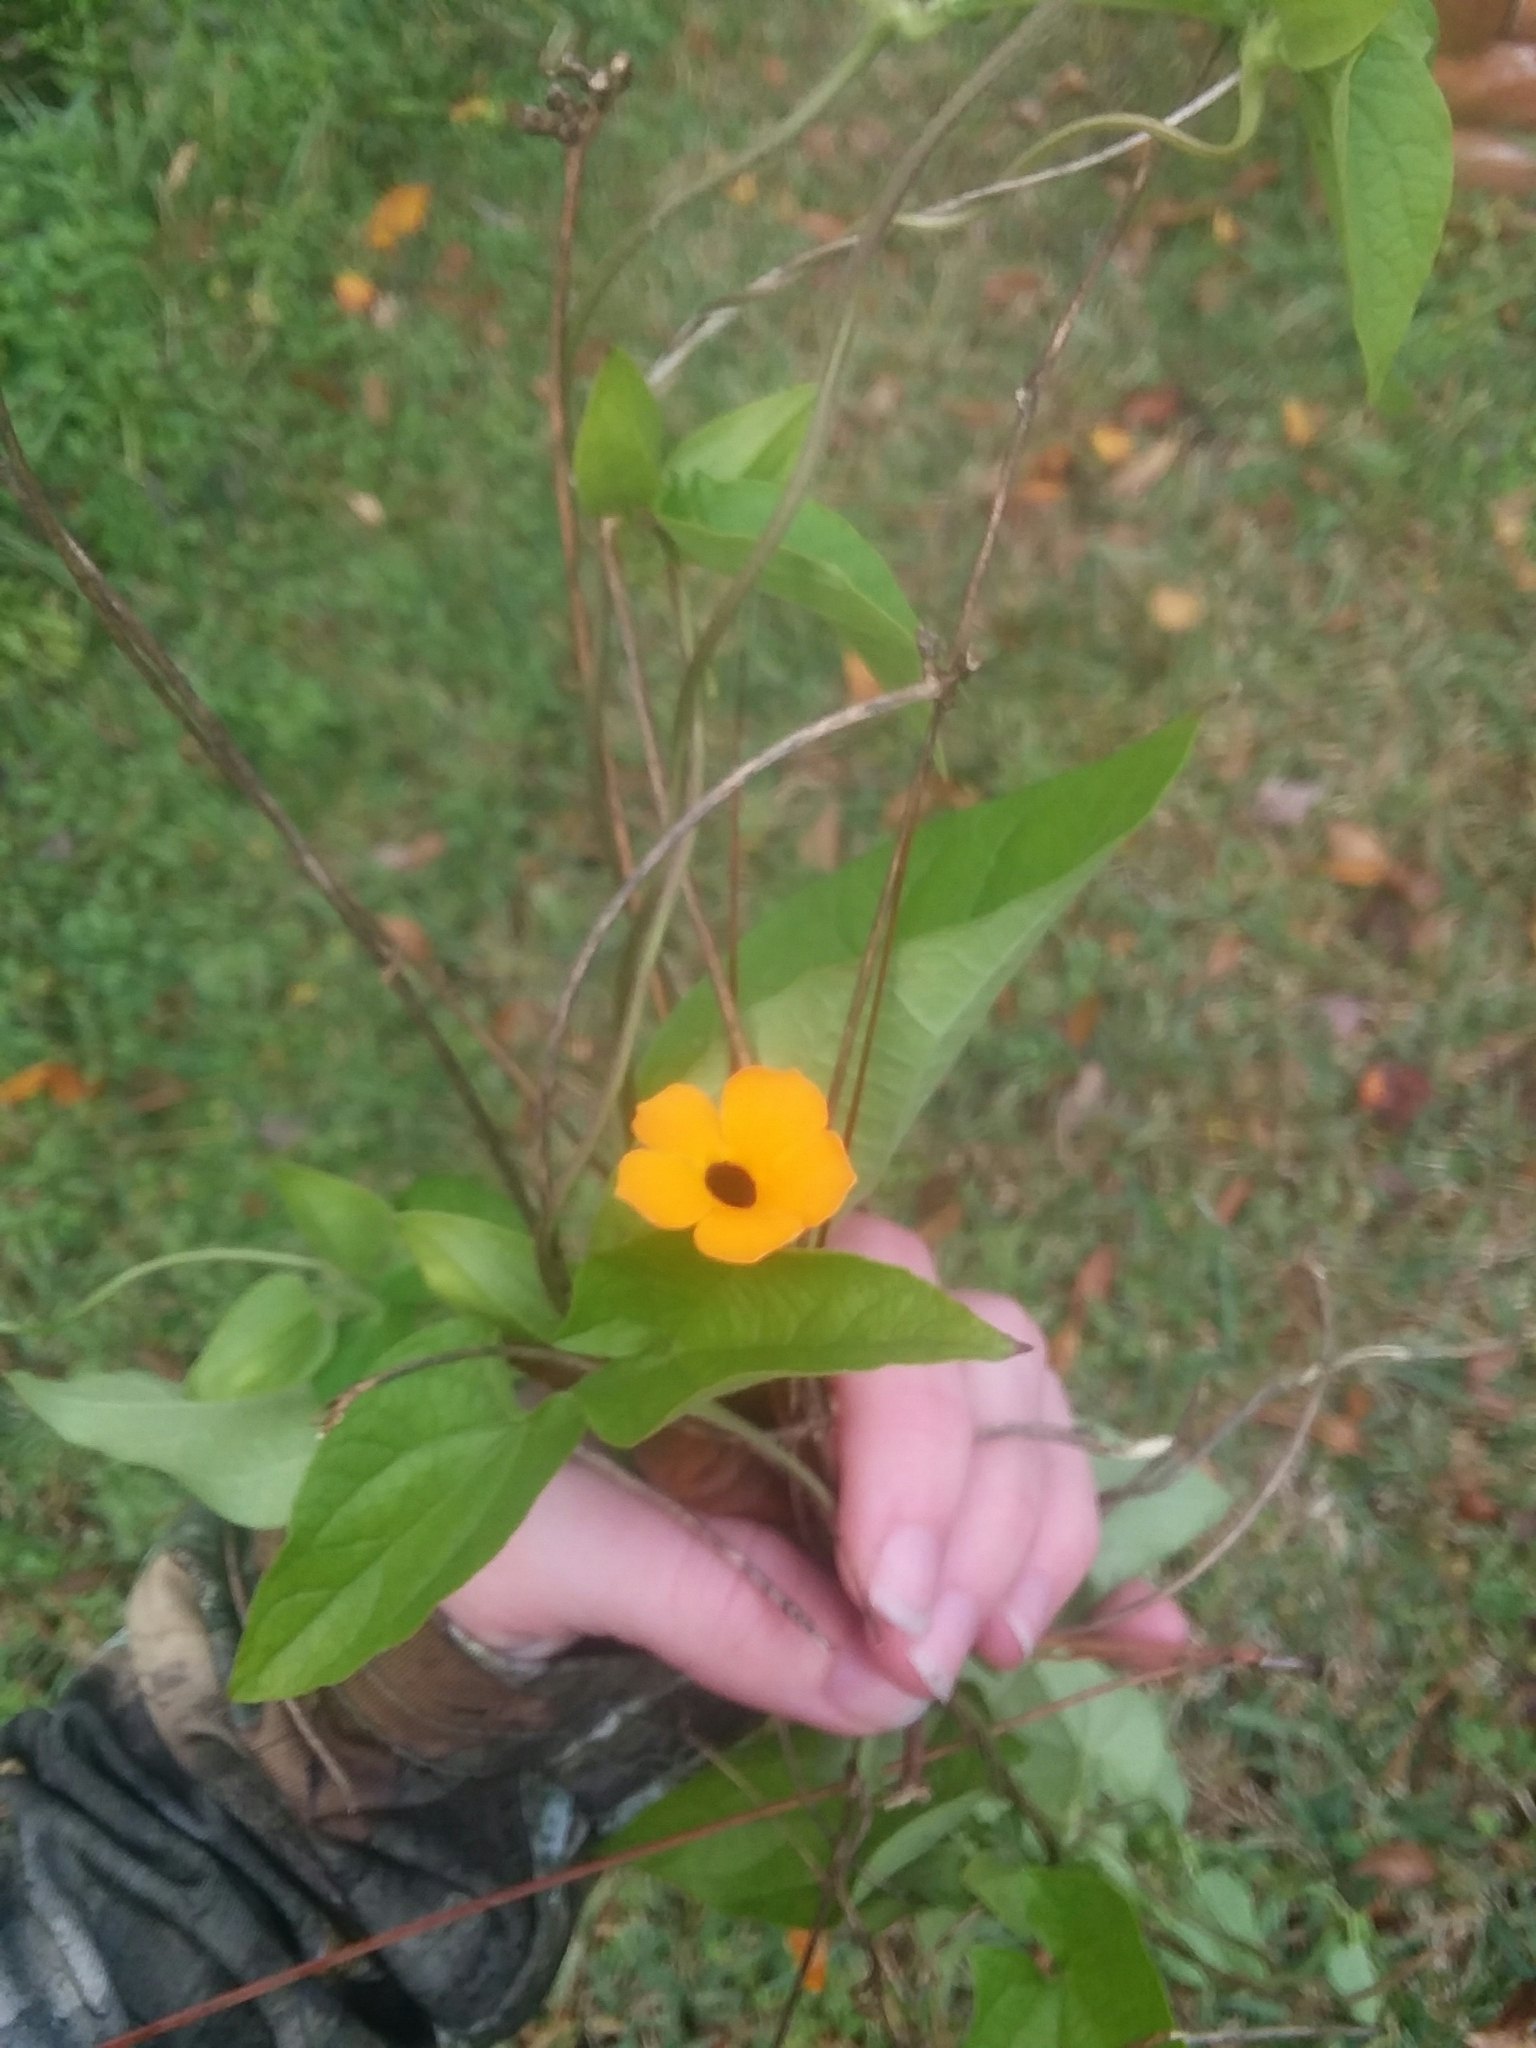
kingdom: Plantae
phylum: Tracheophyta
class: Magnoliopsida
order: Lamiales
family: Acanthaceae
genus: Thunbergia
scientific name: Thunbergia alata
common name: Blackeyed susan vine
